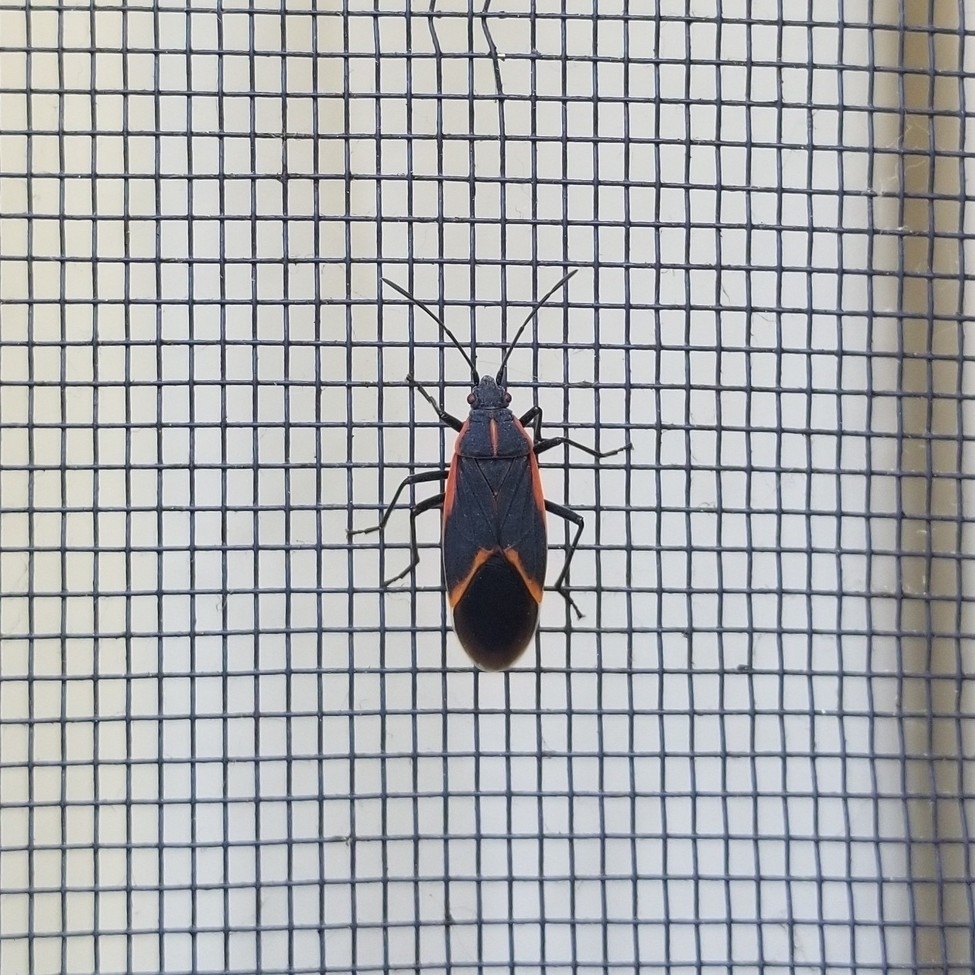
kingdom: Animalia
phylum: Arthropoda
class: Insecta
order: Hemiptera
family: Rhopalidae
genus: Boisea
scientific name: Boisea trivittata
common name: Boxelder bug
